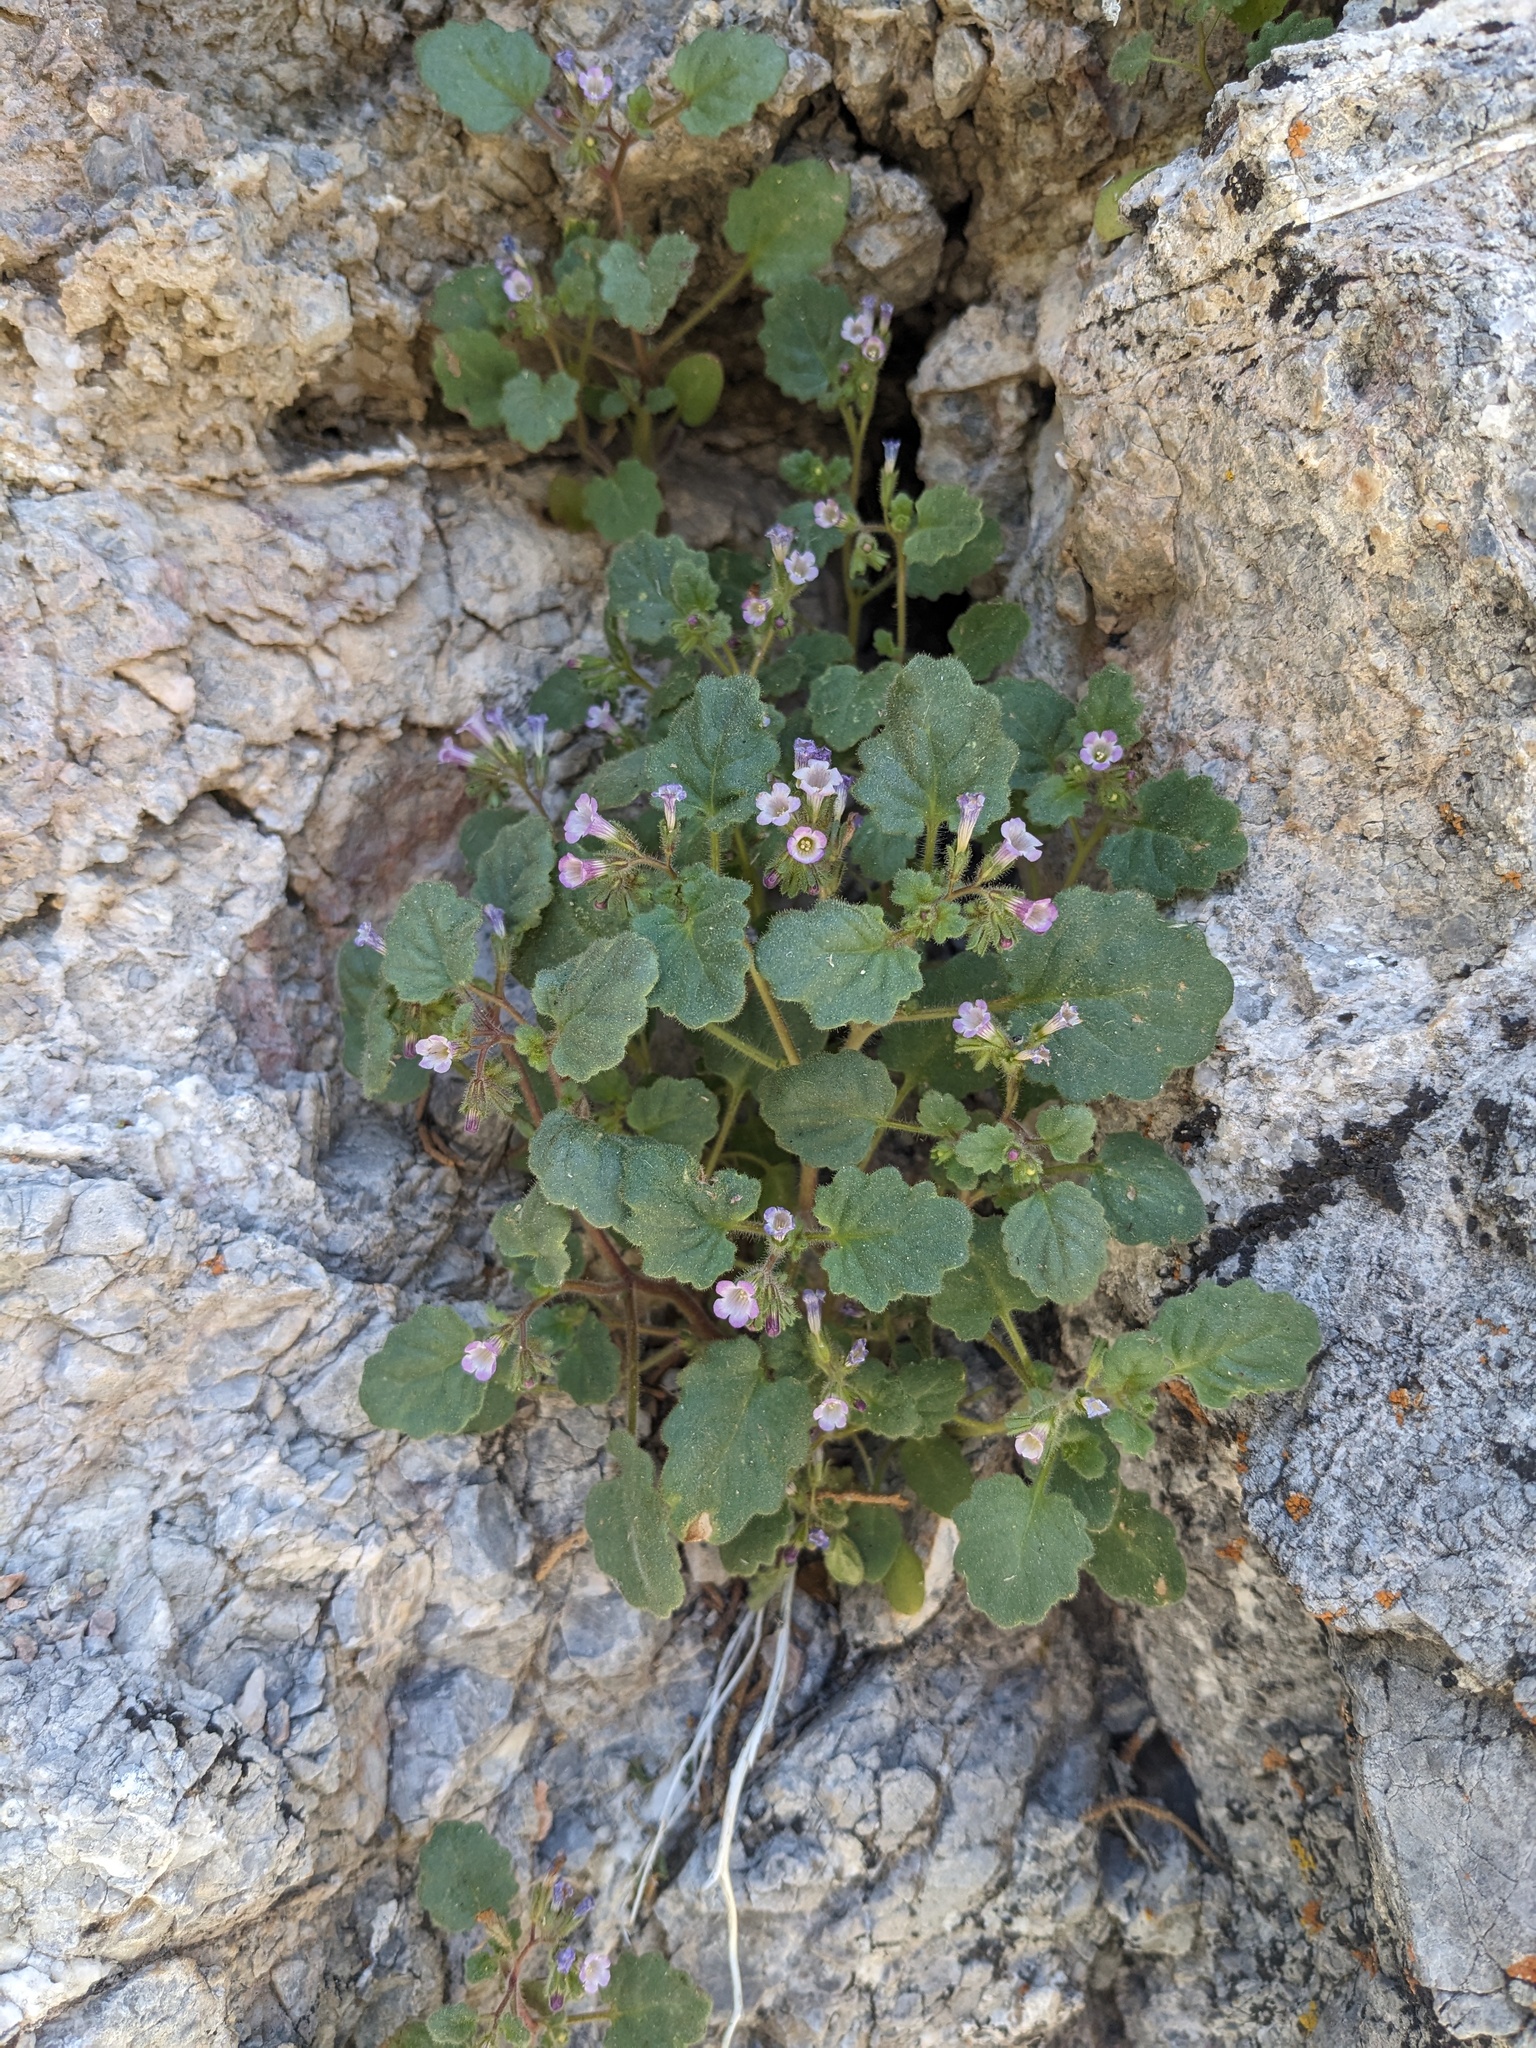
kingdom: Plantae
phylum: Tracheophyta
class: Magnoliopsida
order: Boraginales
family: Hydrophyllaceae
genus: Phacelia
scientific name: Phacelia mustelina
